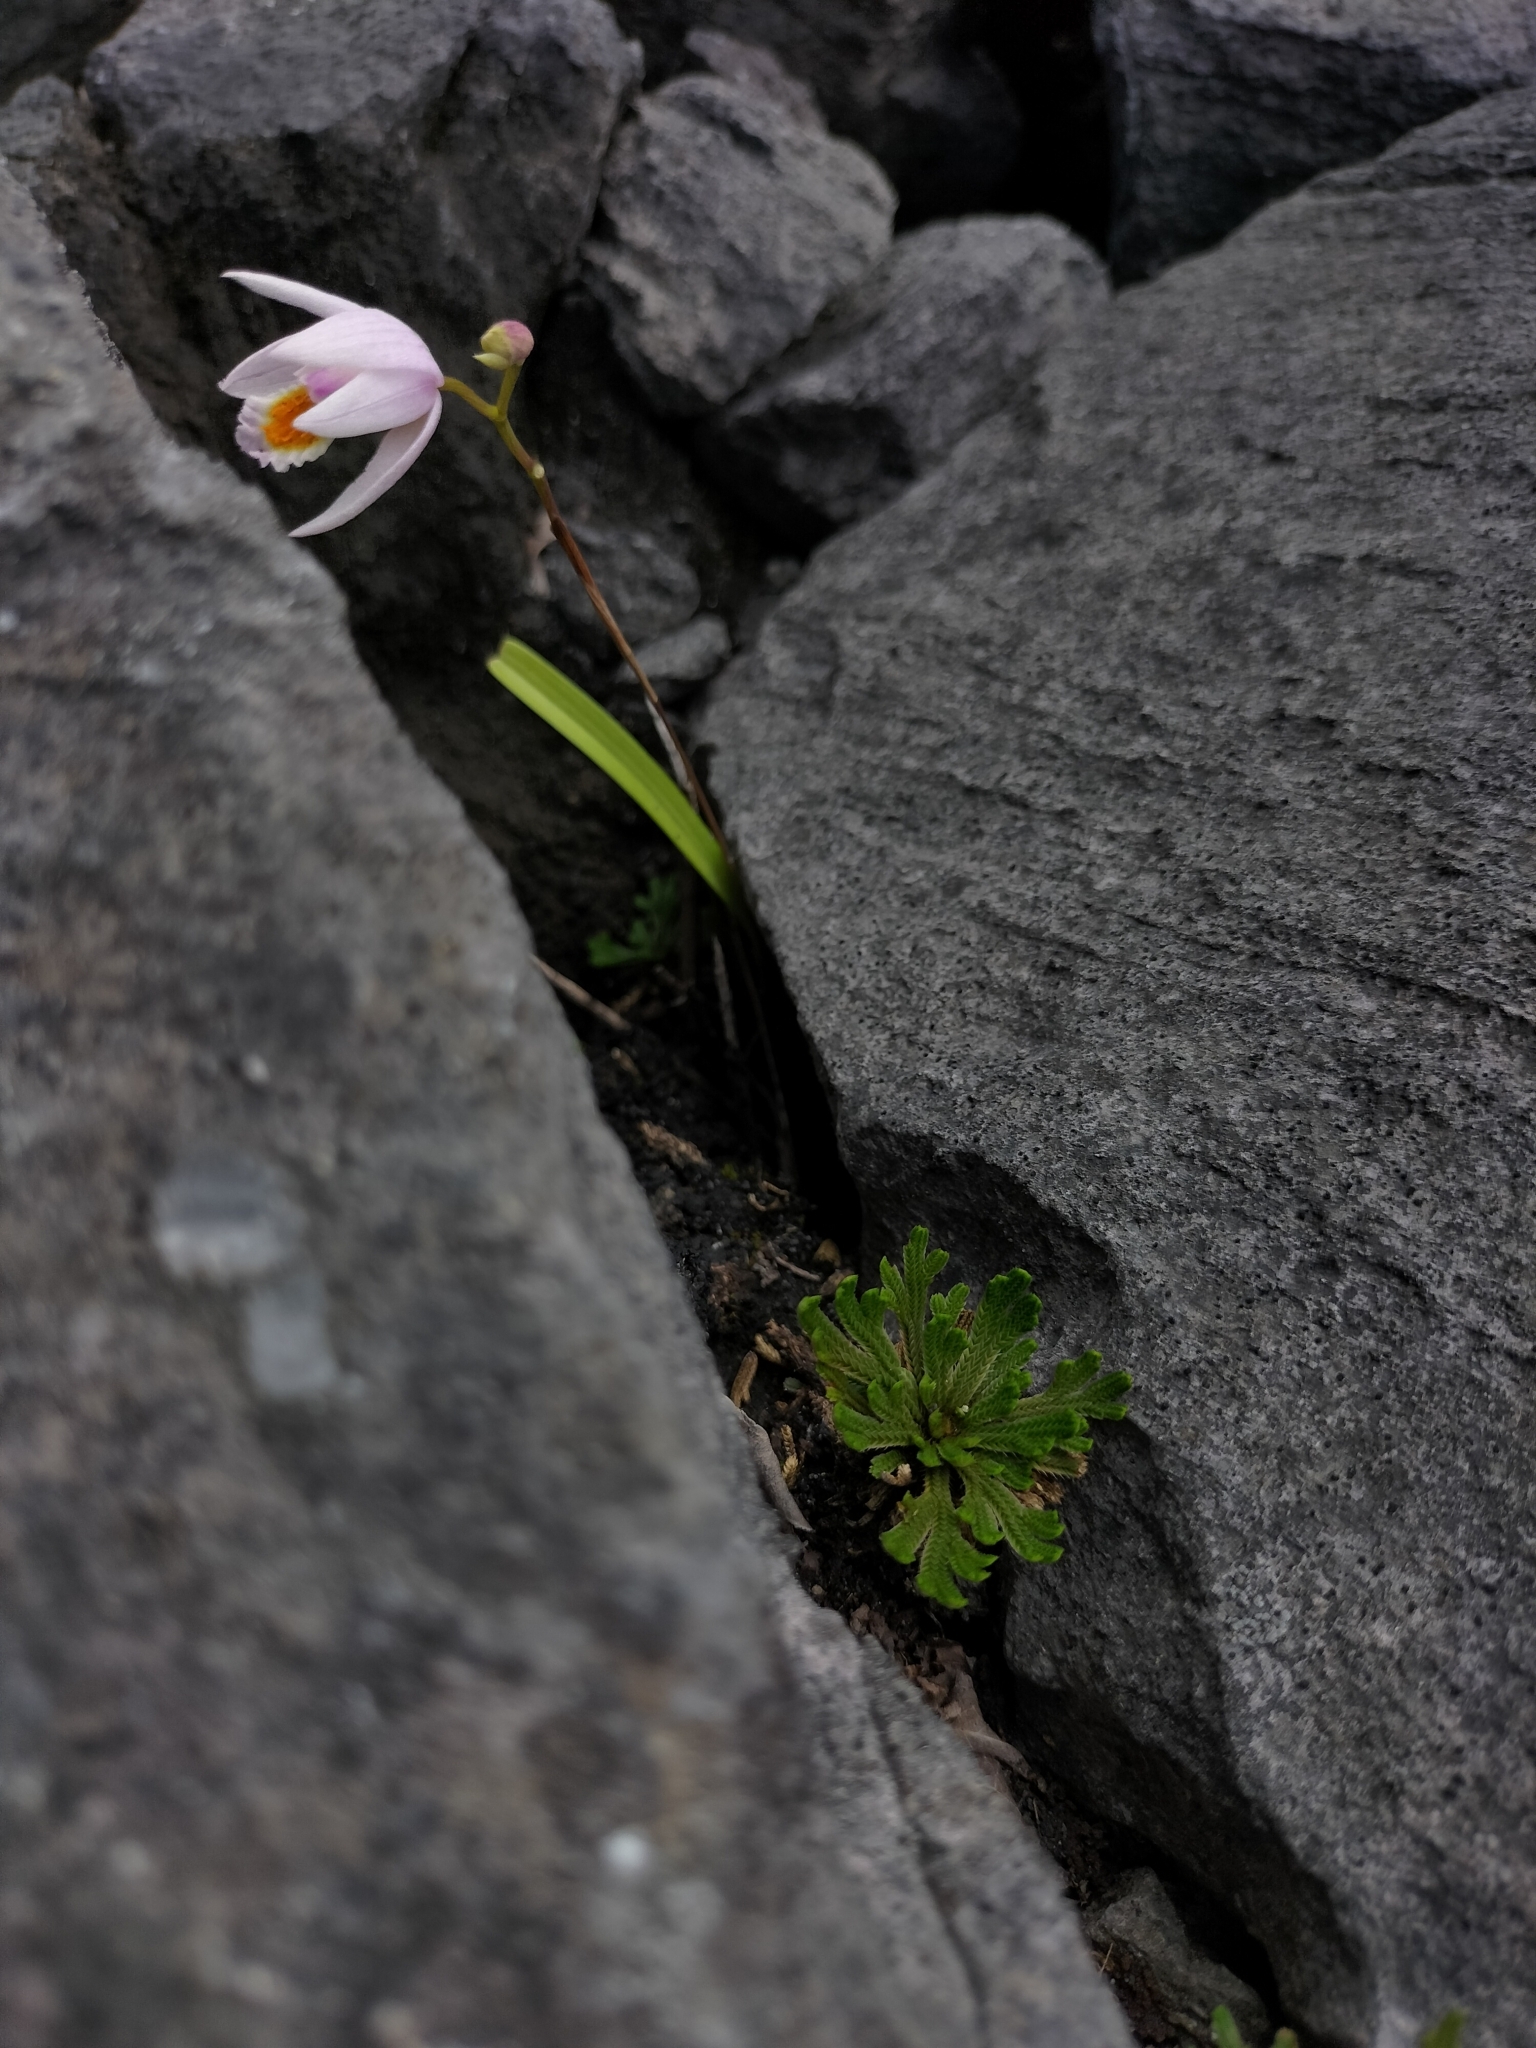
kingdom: Plantae
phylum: Tracheophyta
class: Liliopsida
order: Asparagales
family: Orchidaceae
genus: Bletilla
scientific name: Bletilla formosana
